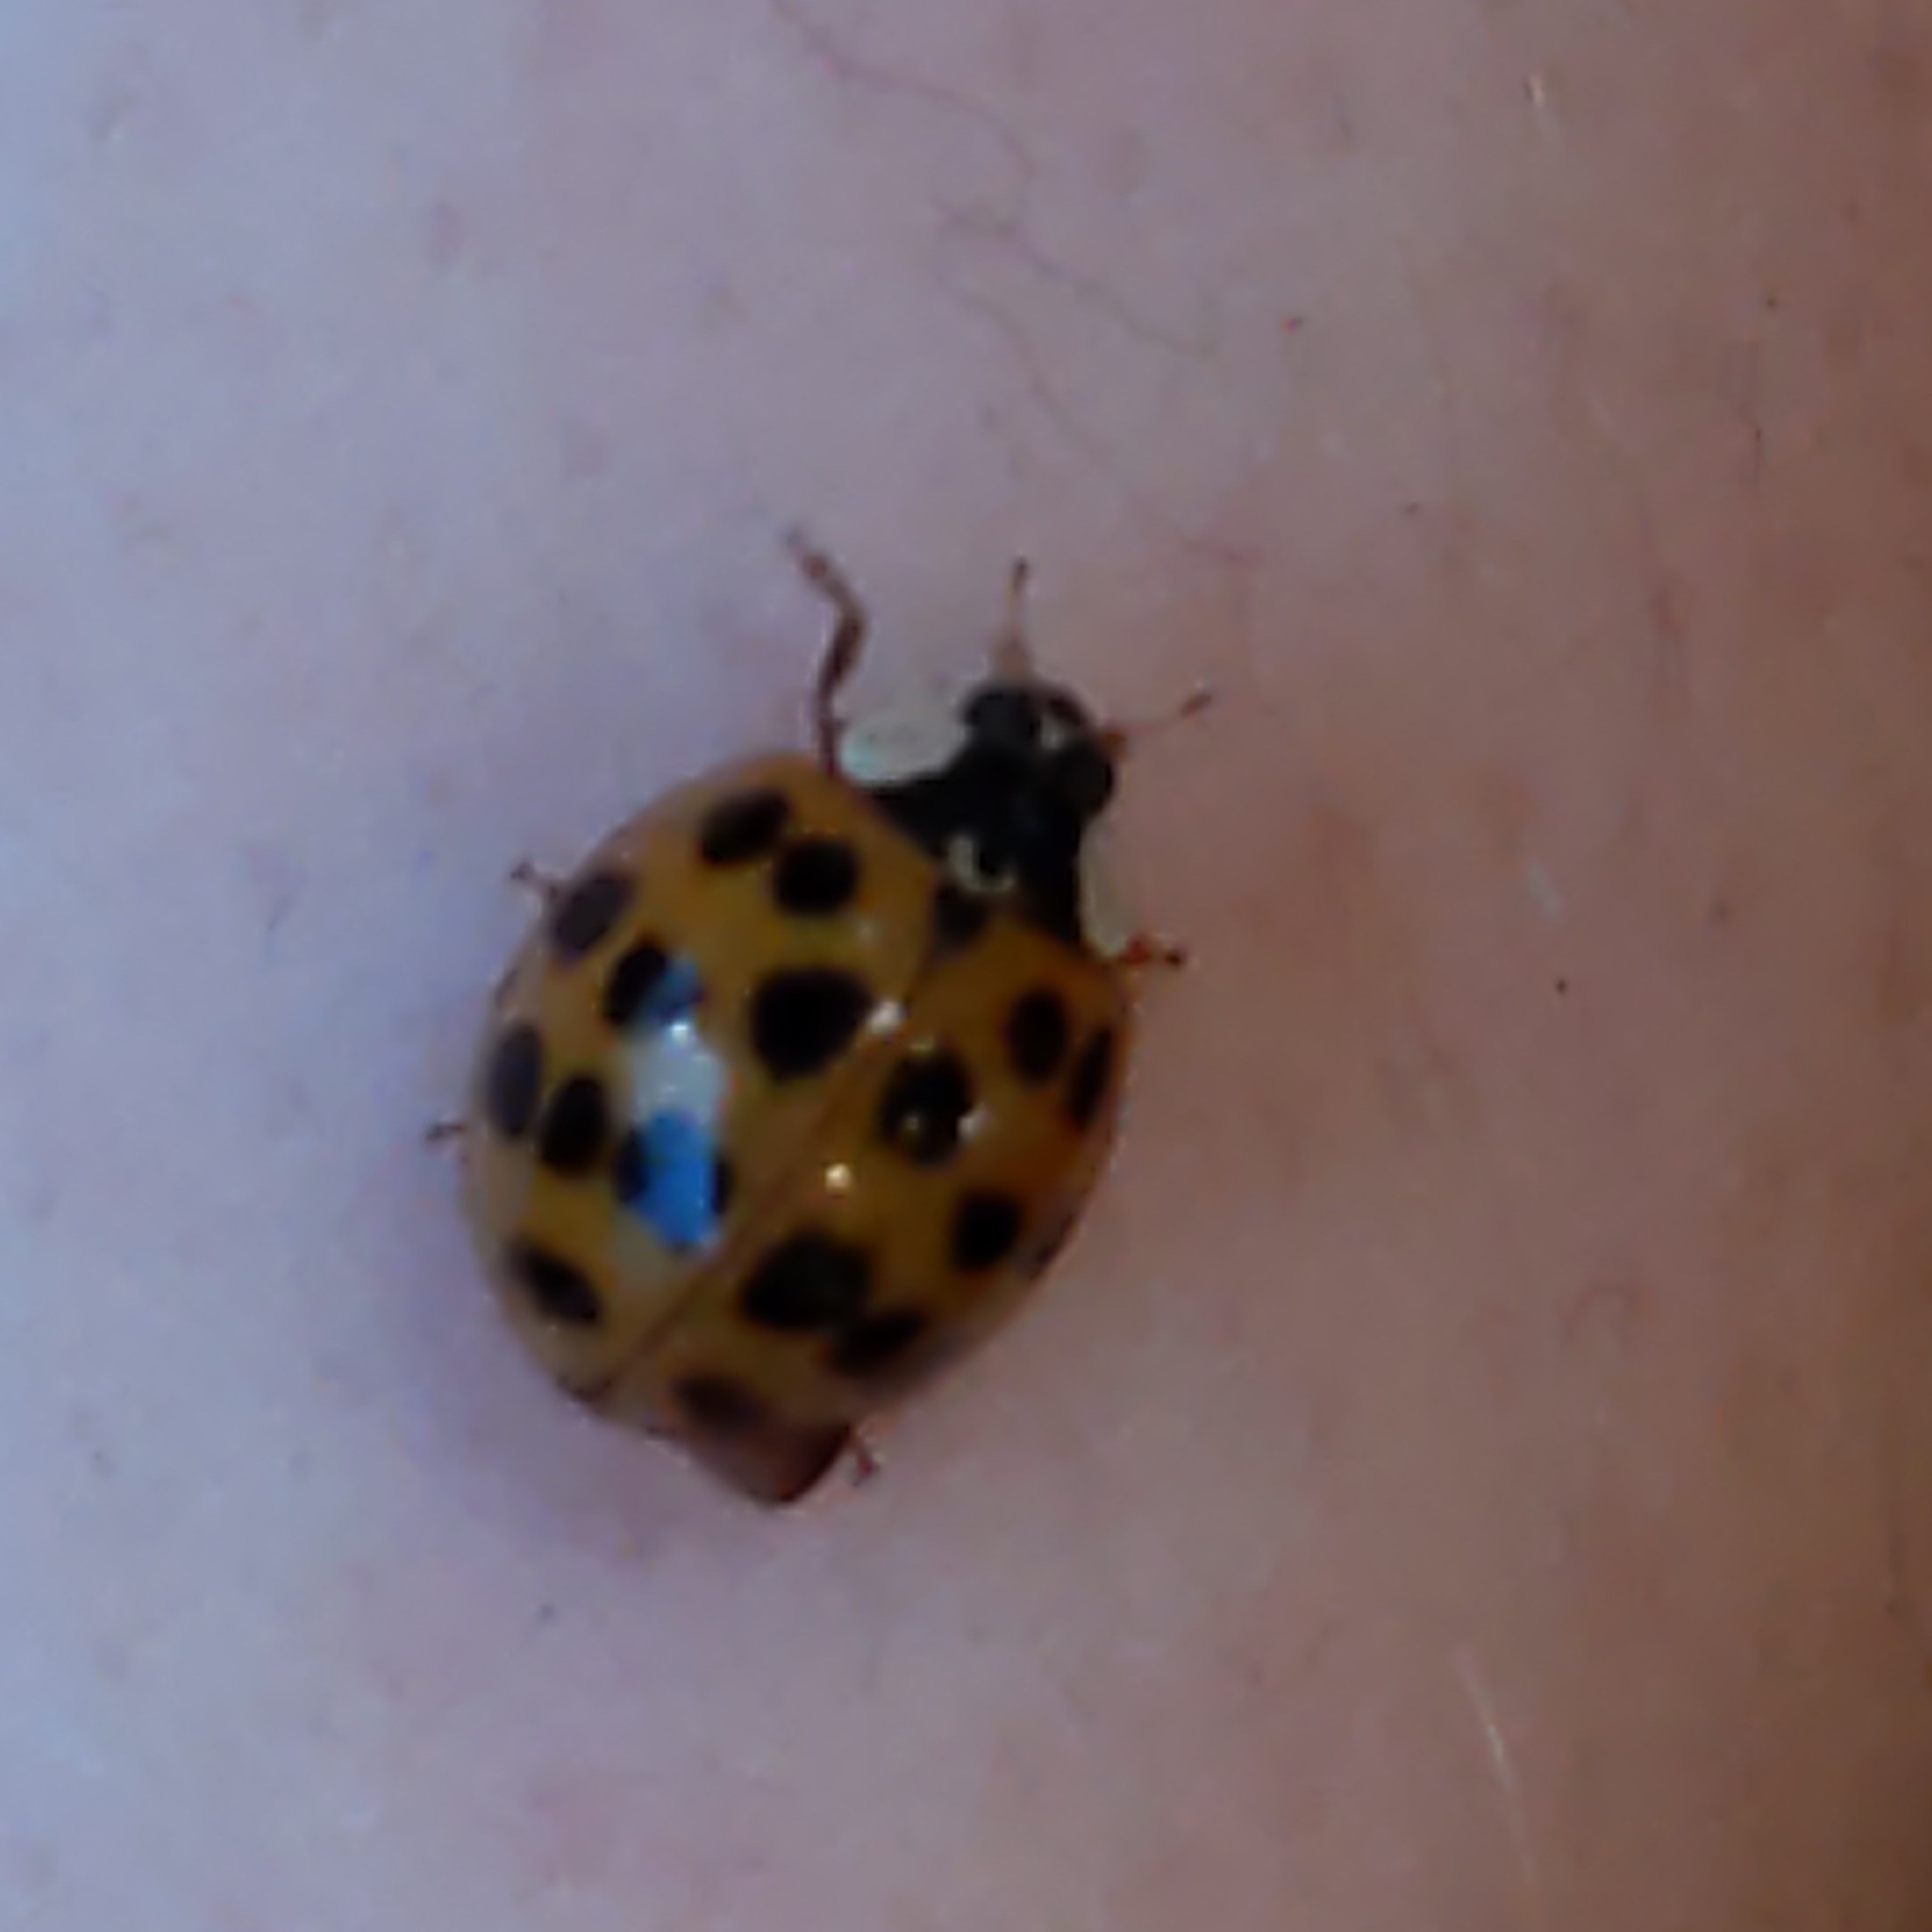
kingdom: Animalia
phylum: Arthropoda
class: Insecta
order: Coleoptera
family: Coccinellidae
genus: Harmonia
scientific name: Harmonia axyridis
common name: Harlequin ladybird
